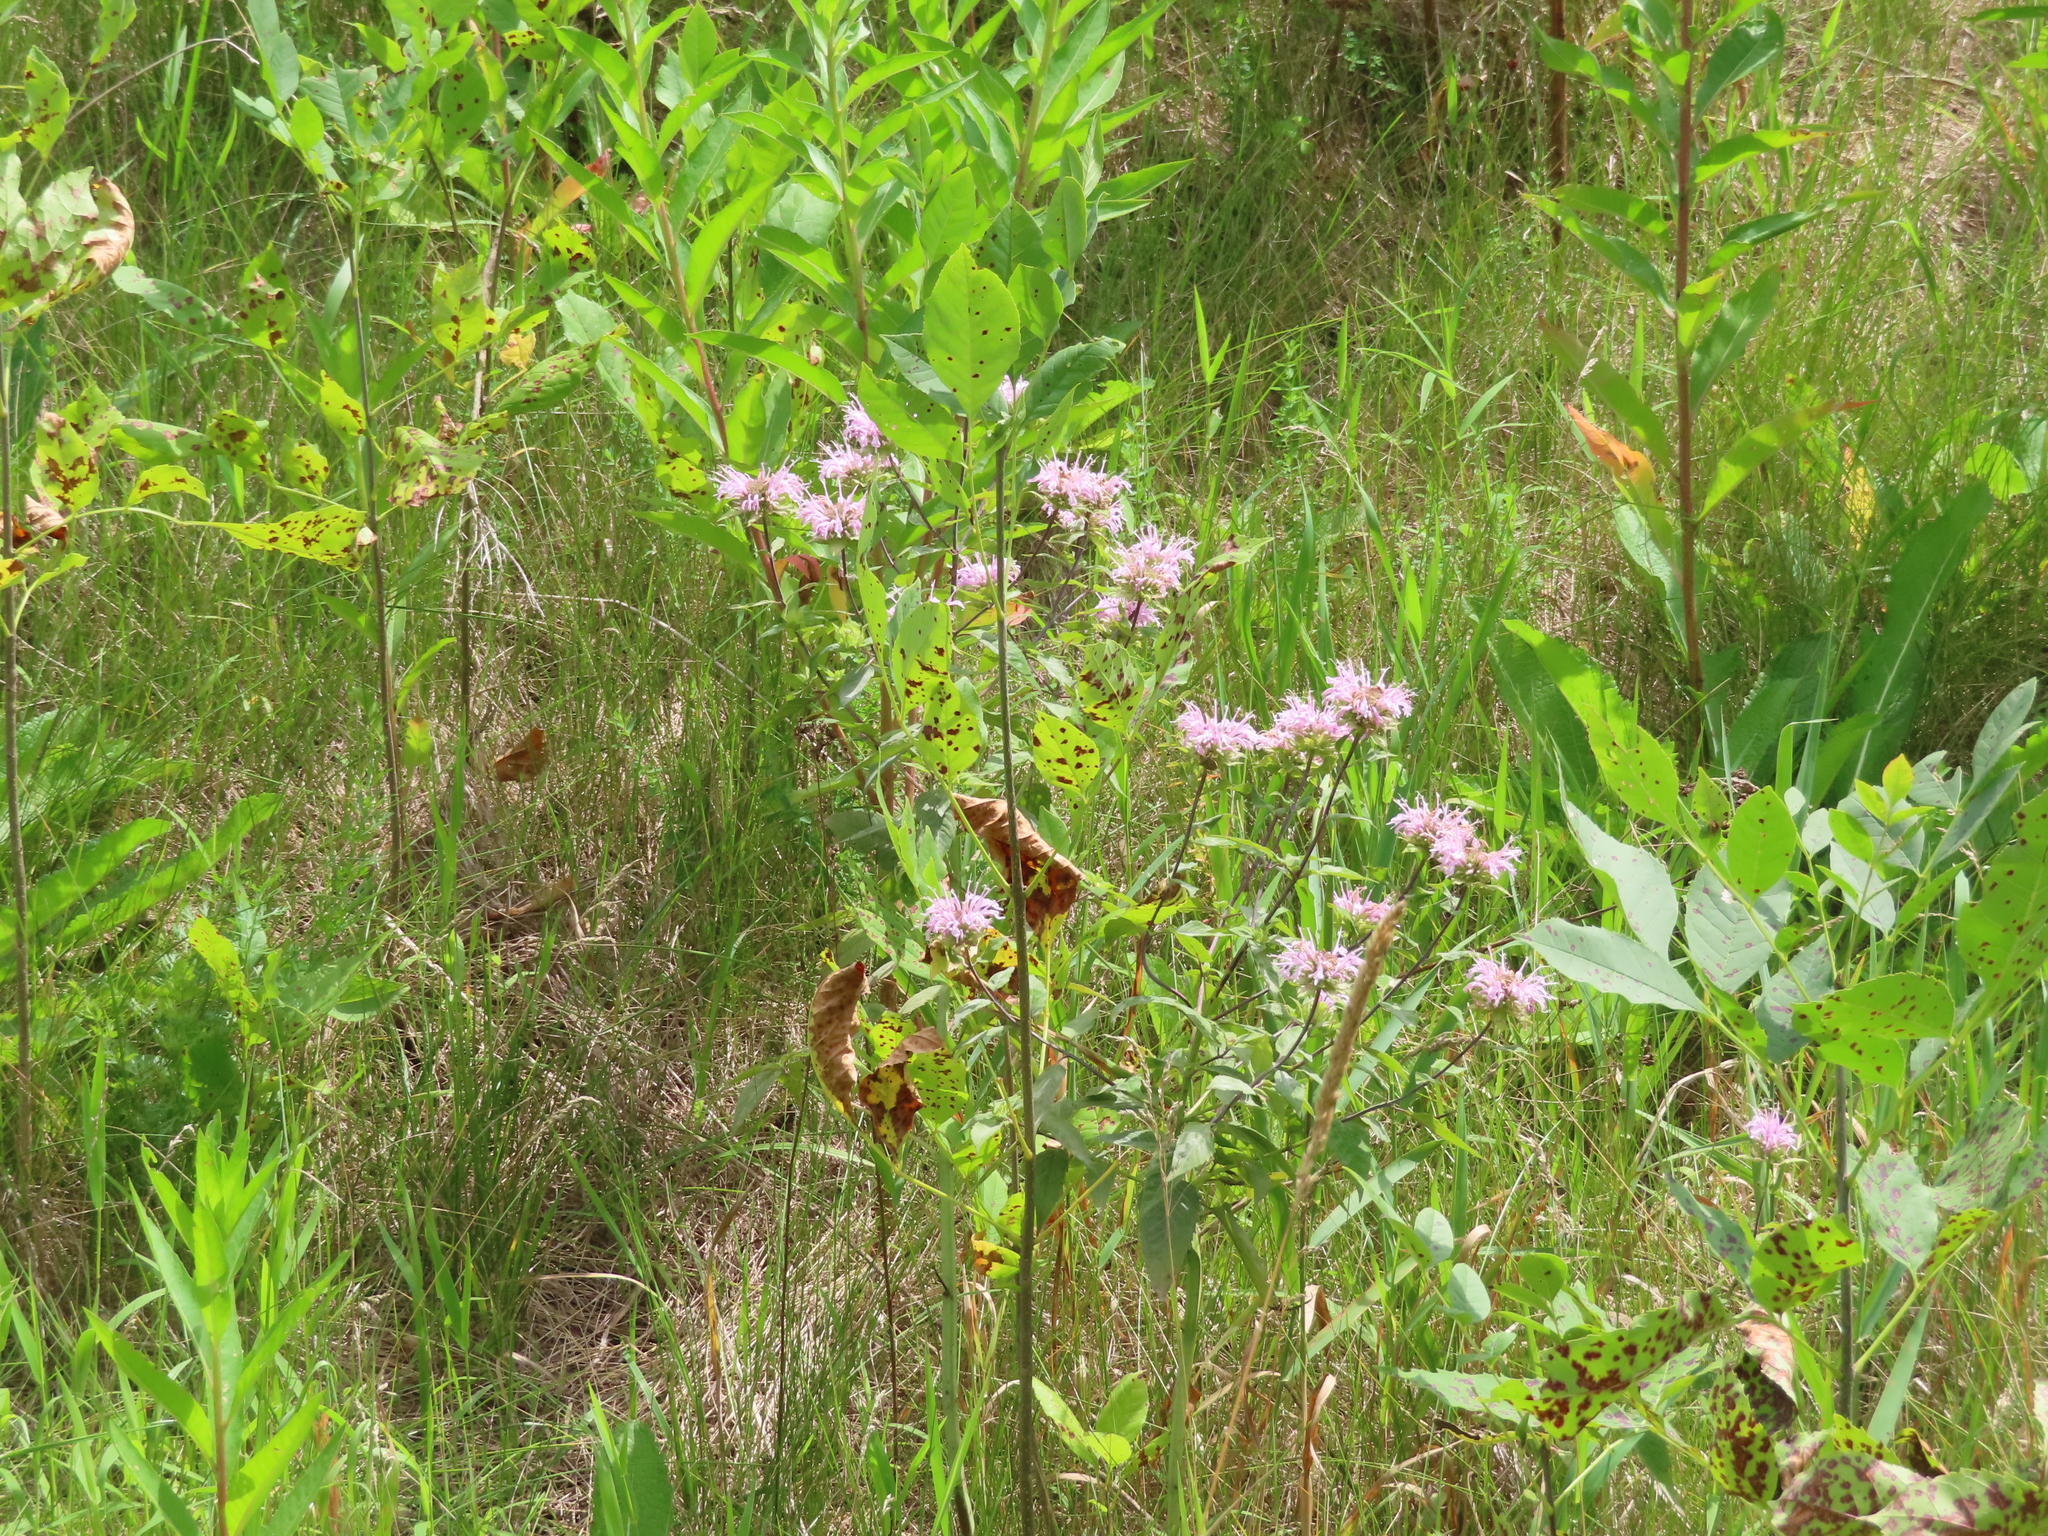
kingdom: Plantae
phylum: Tracheophyta
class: Magnoliopsida
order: Lamiales
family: Lamiaceae
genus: Monarda
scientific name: Monarda fistulosa
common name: Purple beebalm
